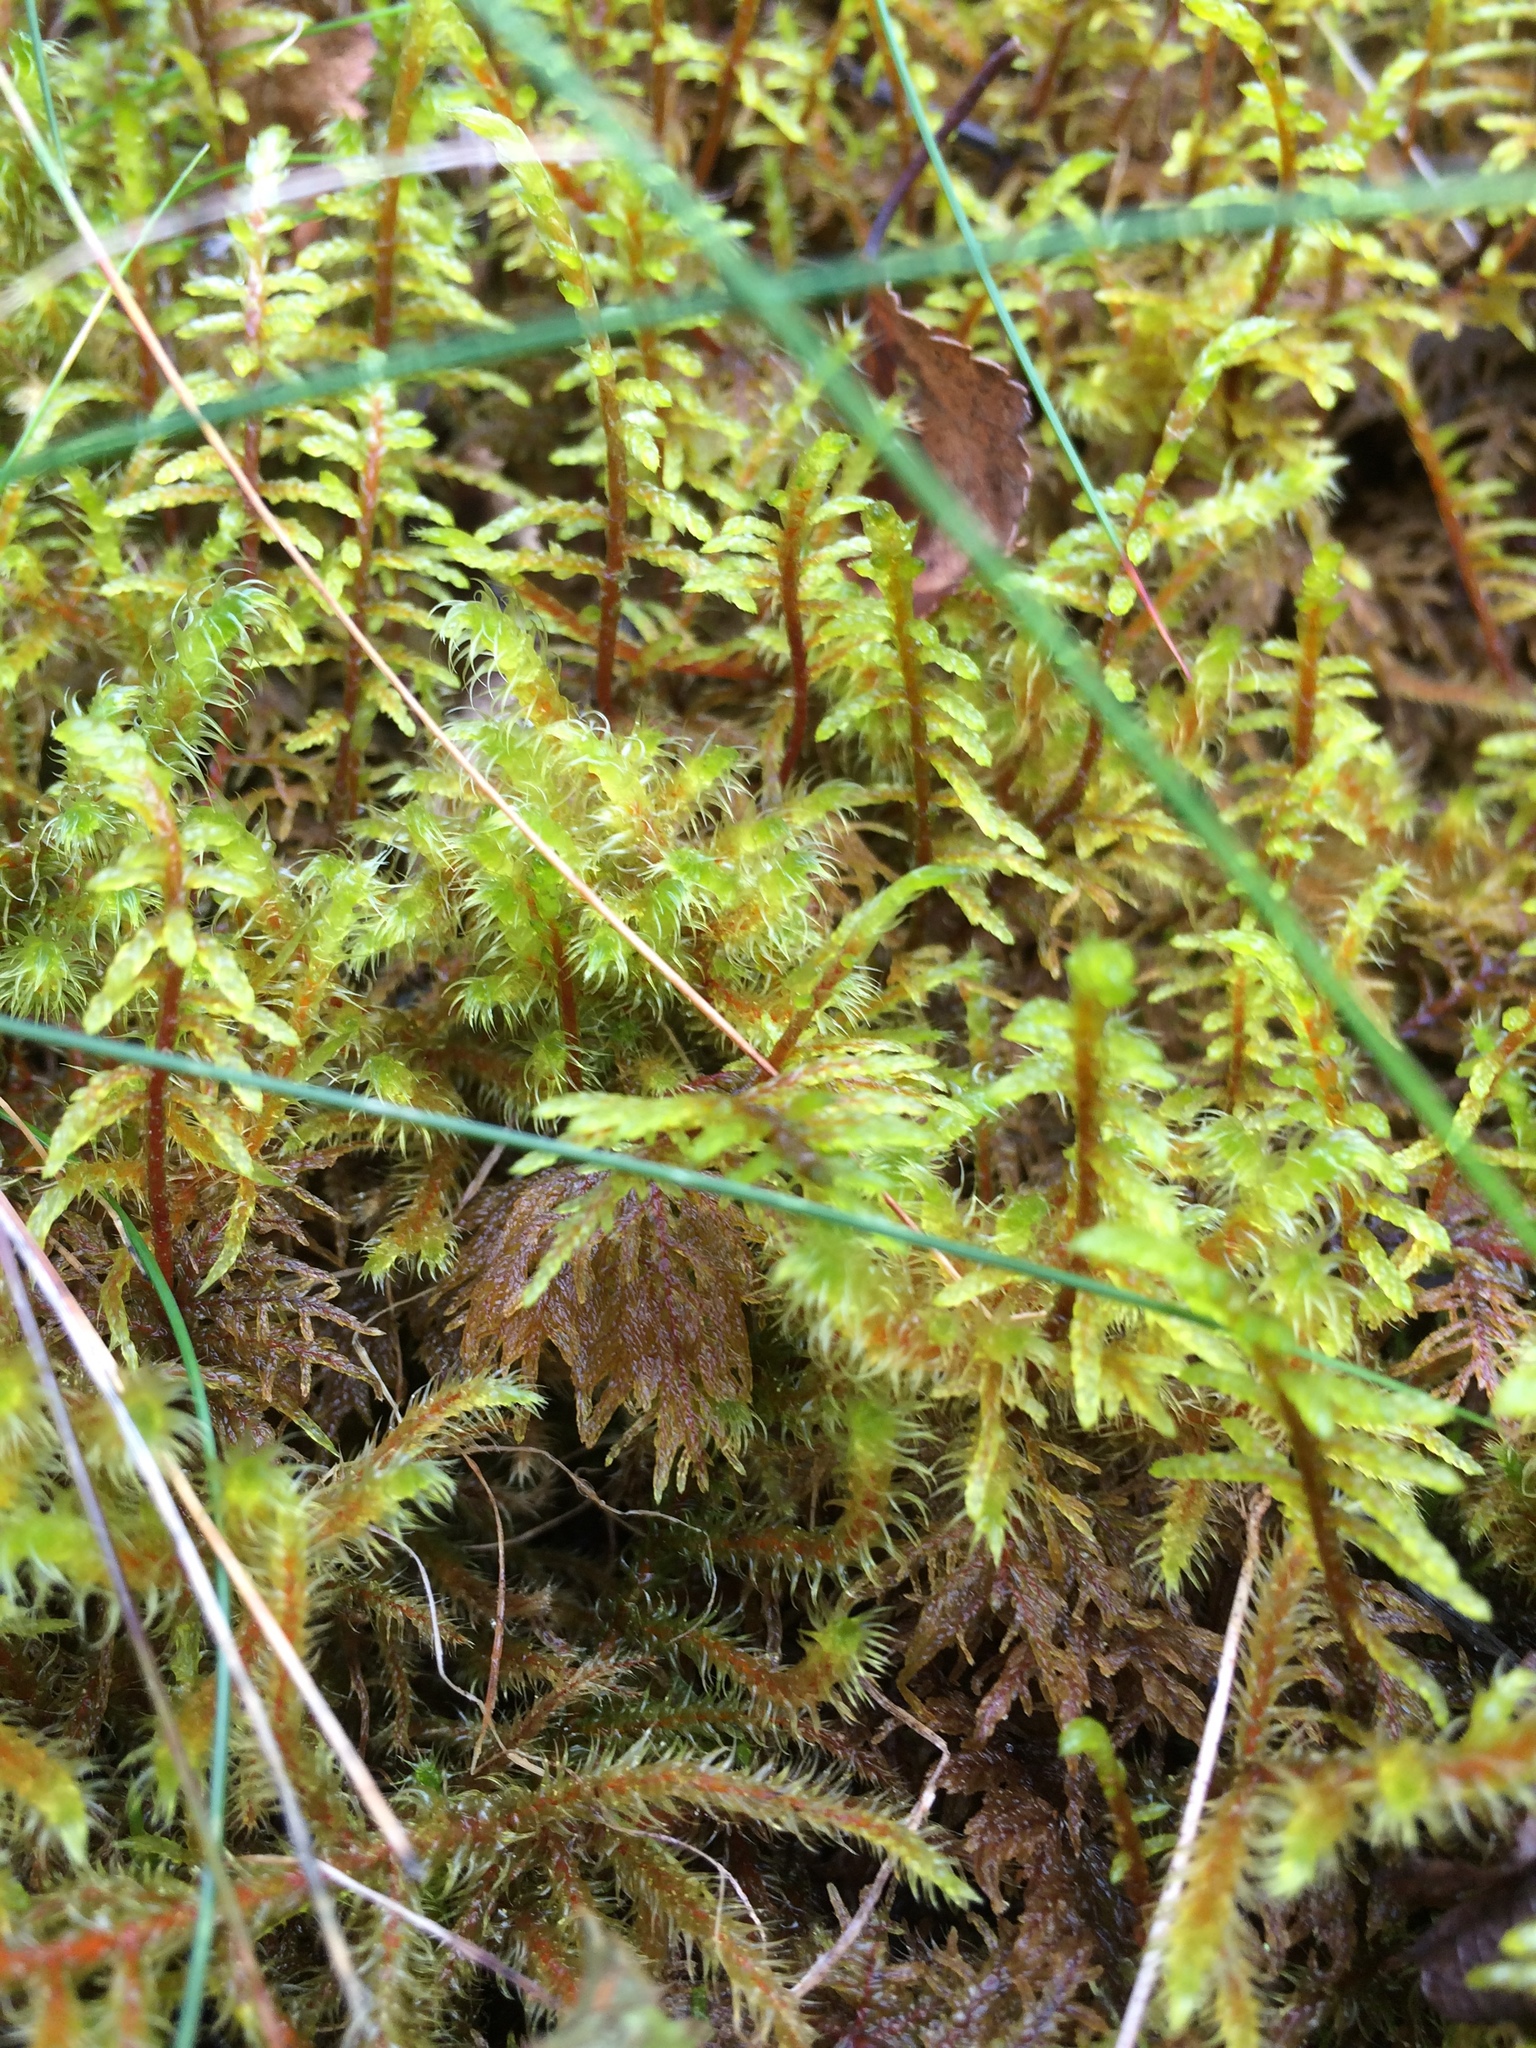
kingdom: Plantae
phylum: Bryophyta
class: Bryopsida
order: Hypnales
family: Hylocomiaceae
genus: Hylocomium
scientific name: Hylocomium splendens
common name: Stairstep moss
